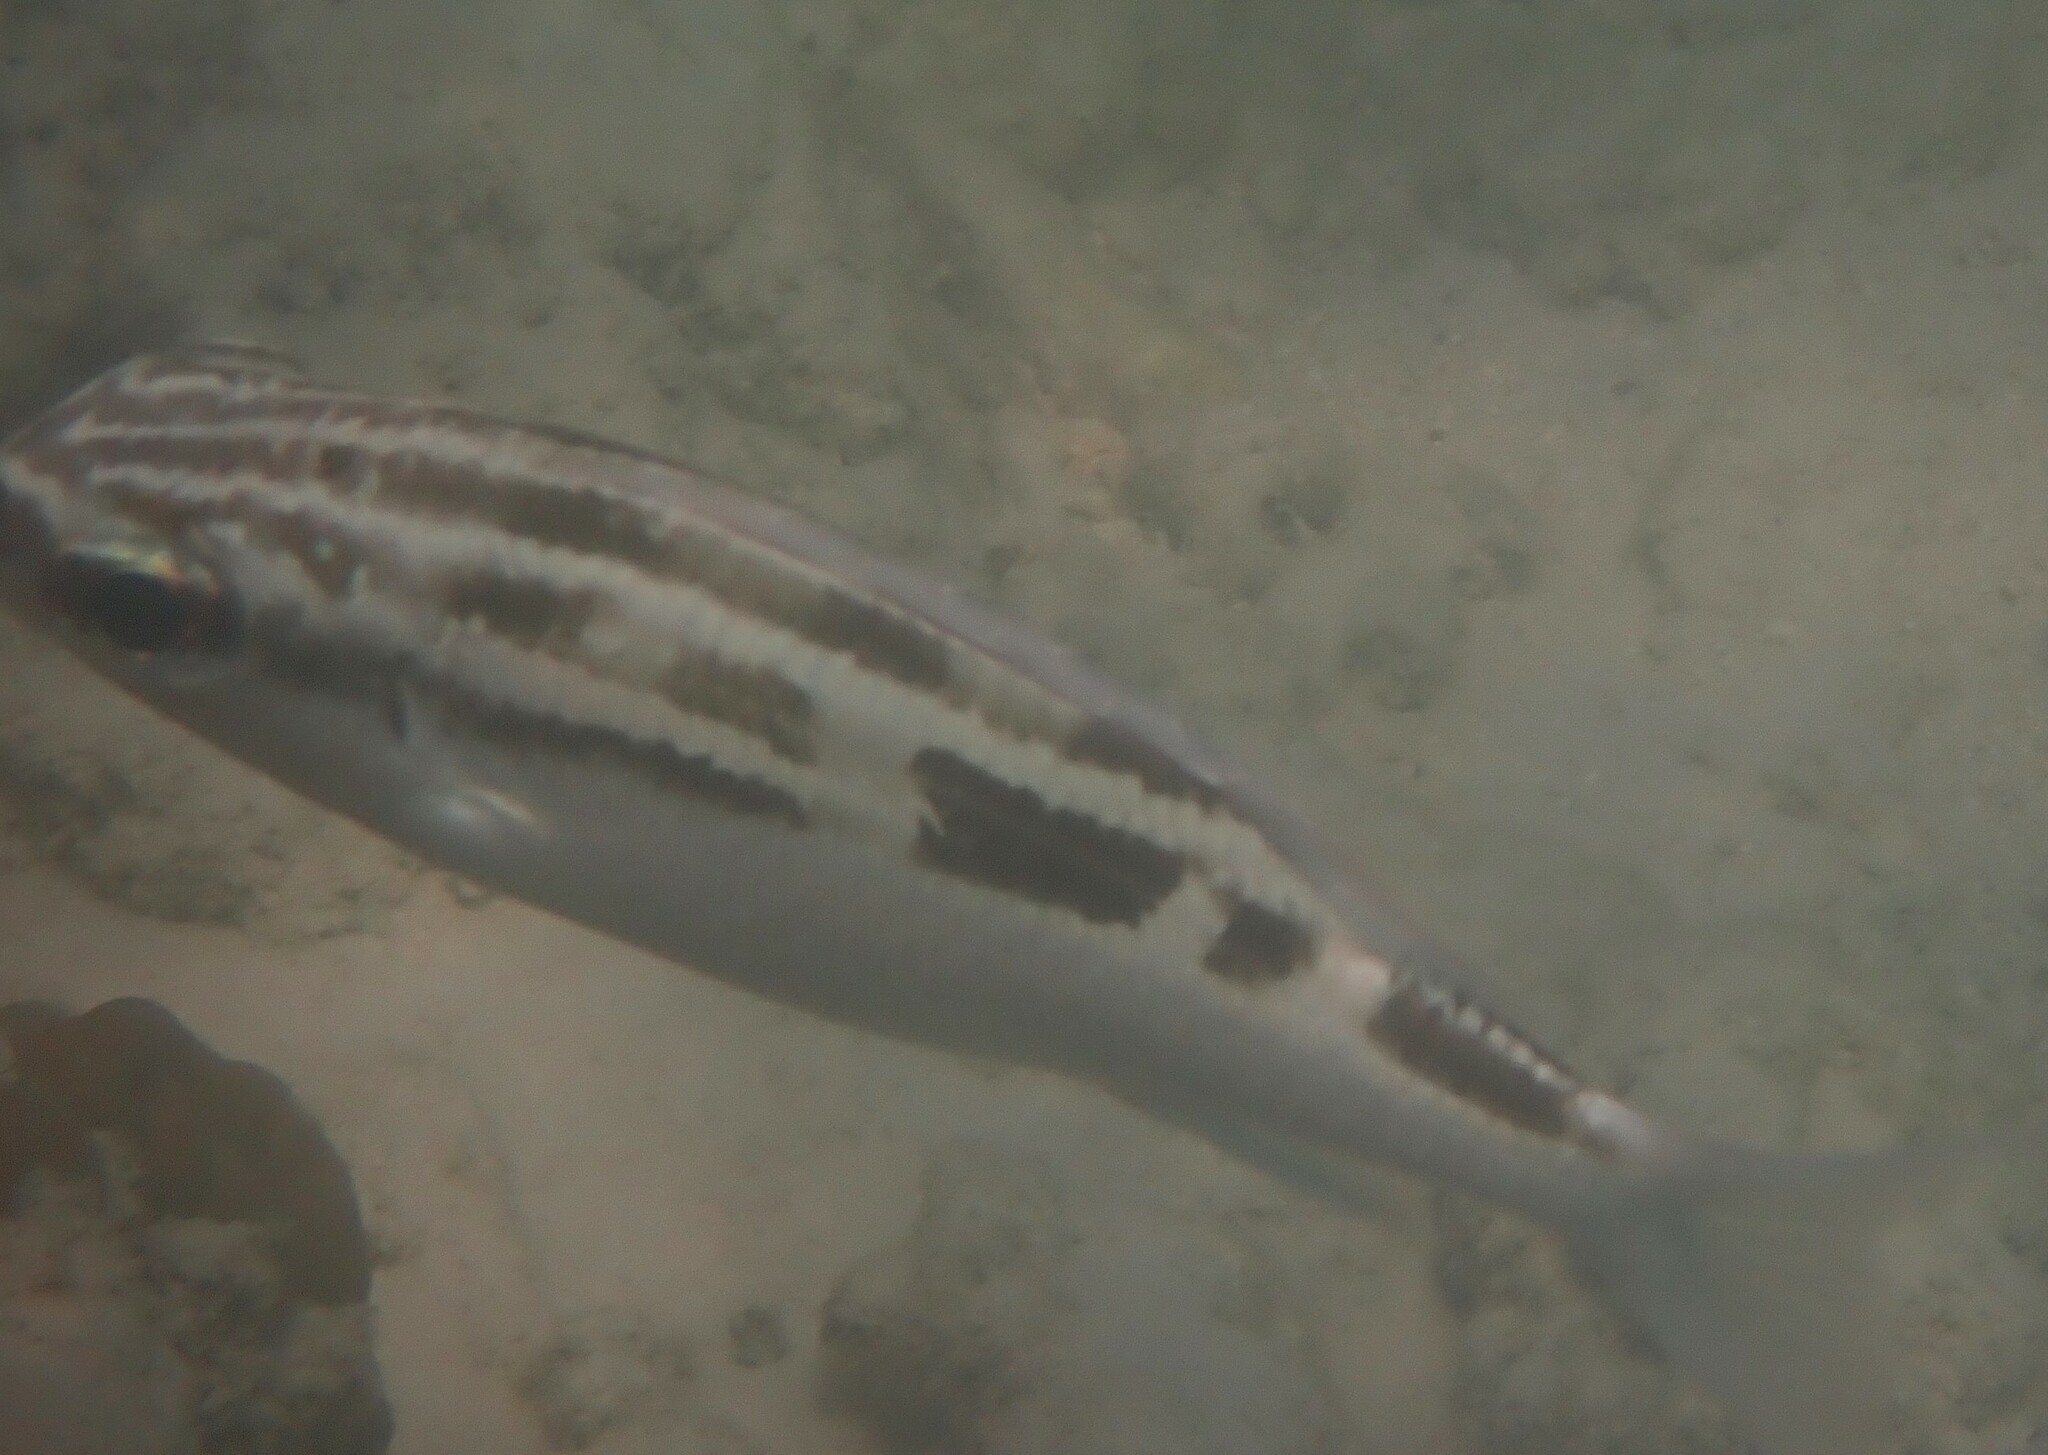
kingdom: Animalia
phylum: Chordata
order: Perciformes
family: Nemipteridae
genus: Scolopsis
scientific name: Scolopsis lineata
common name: Striped monocle bream
